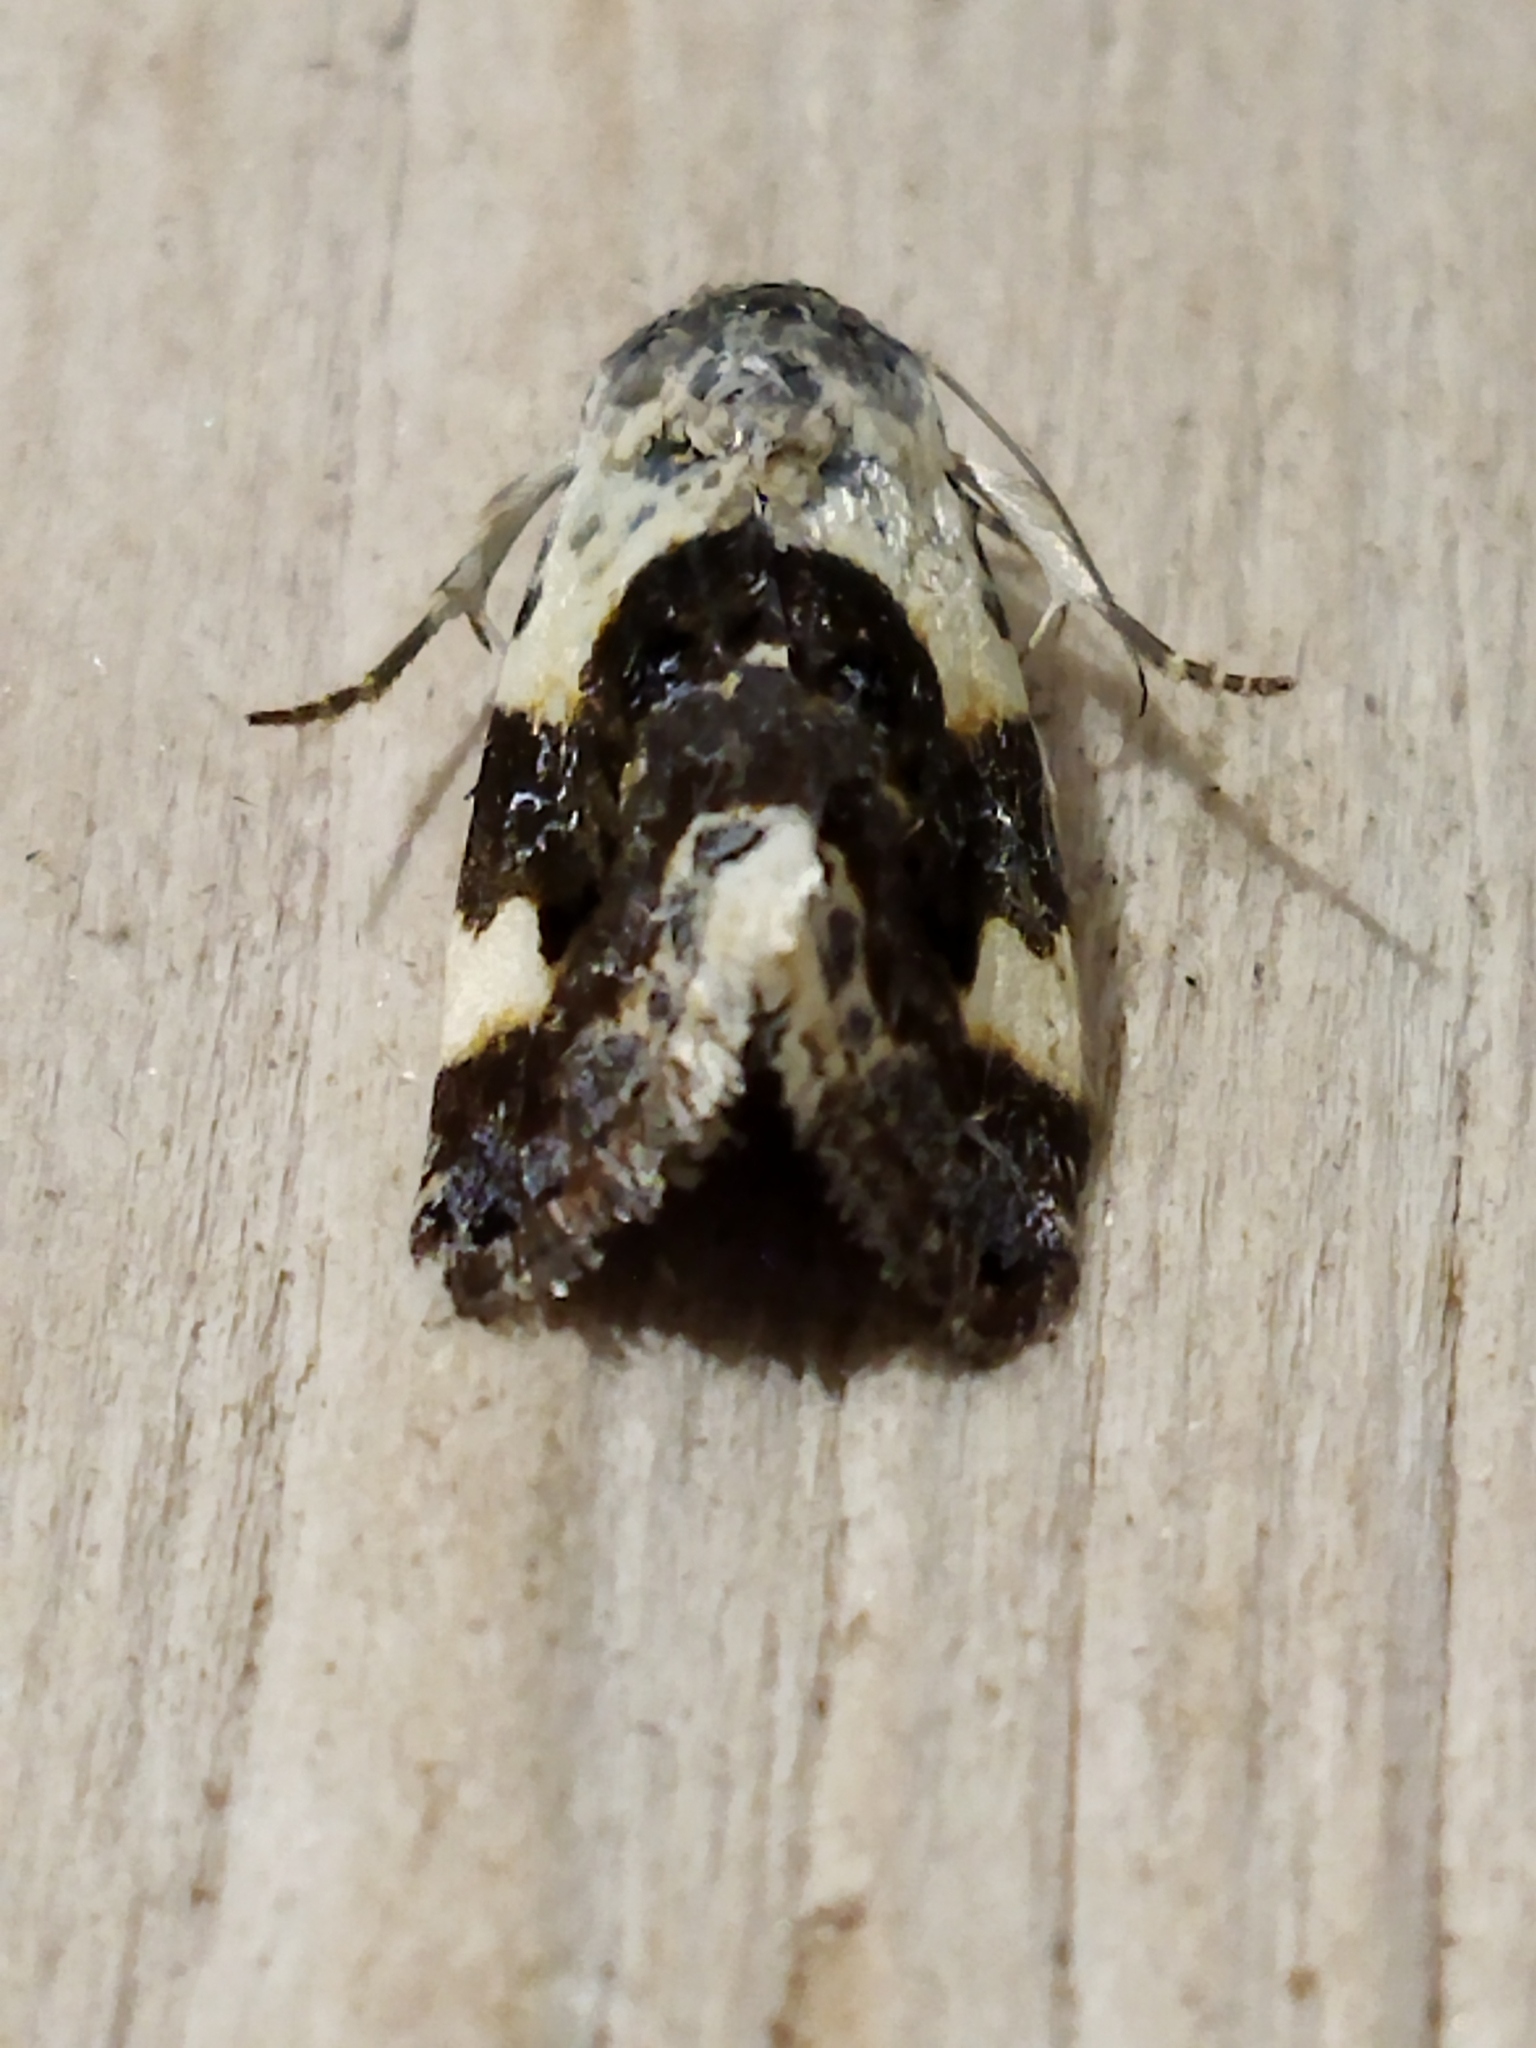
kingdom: Animalia
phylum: Arthropoda
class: Insecta
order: Lepidoptera
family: Noctuidae
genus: Acontia
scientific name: Acontia lucida
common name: Pale shoulder
